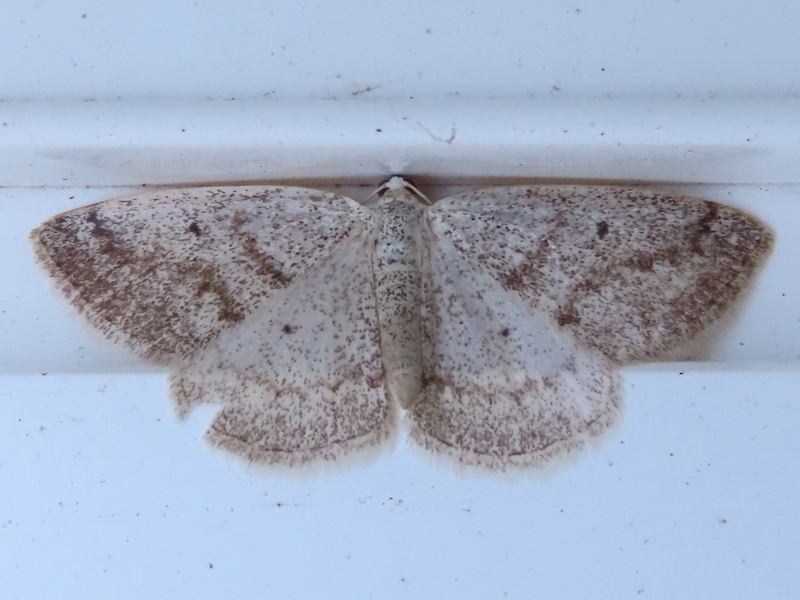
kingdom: Animalia
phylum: Arthropoda
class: Insecta
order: Lepidoptera
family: Geometridae
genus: Lomographa
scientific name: Lomographa glomeraria
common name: Gray spring moth
